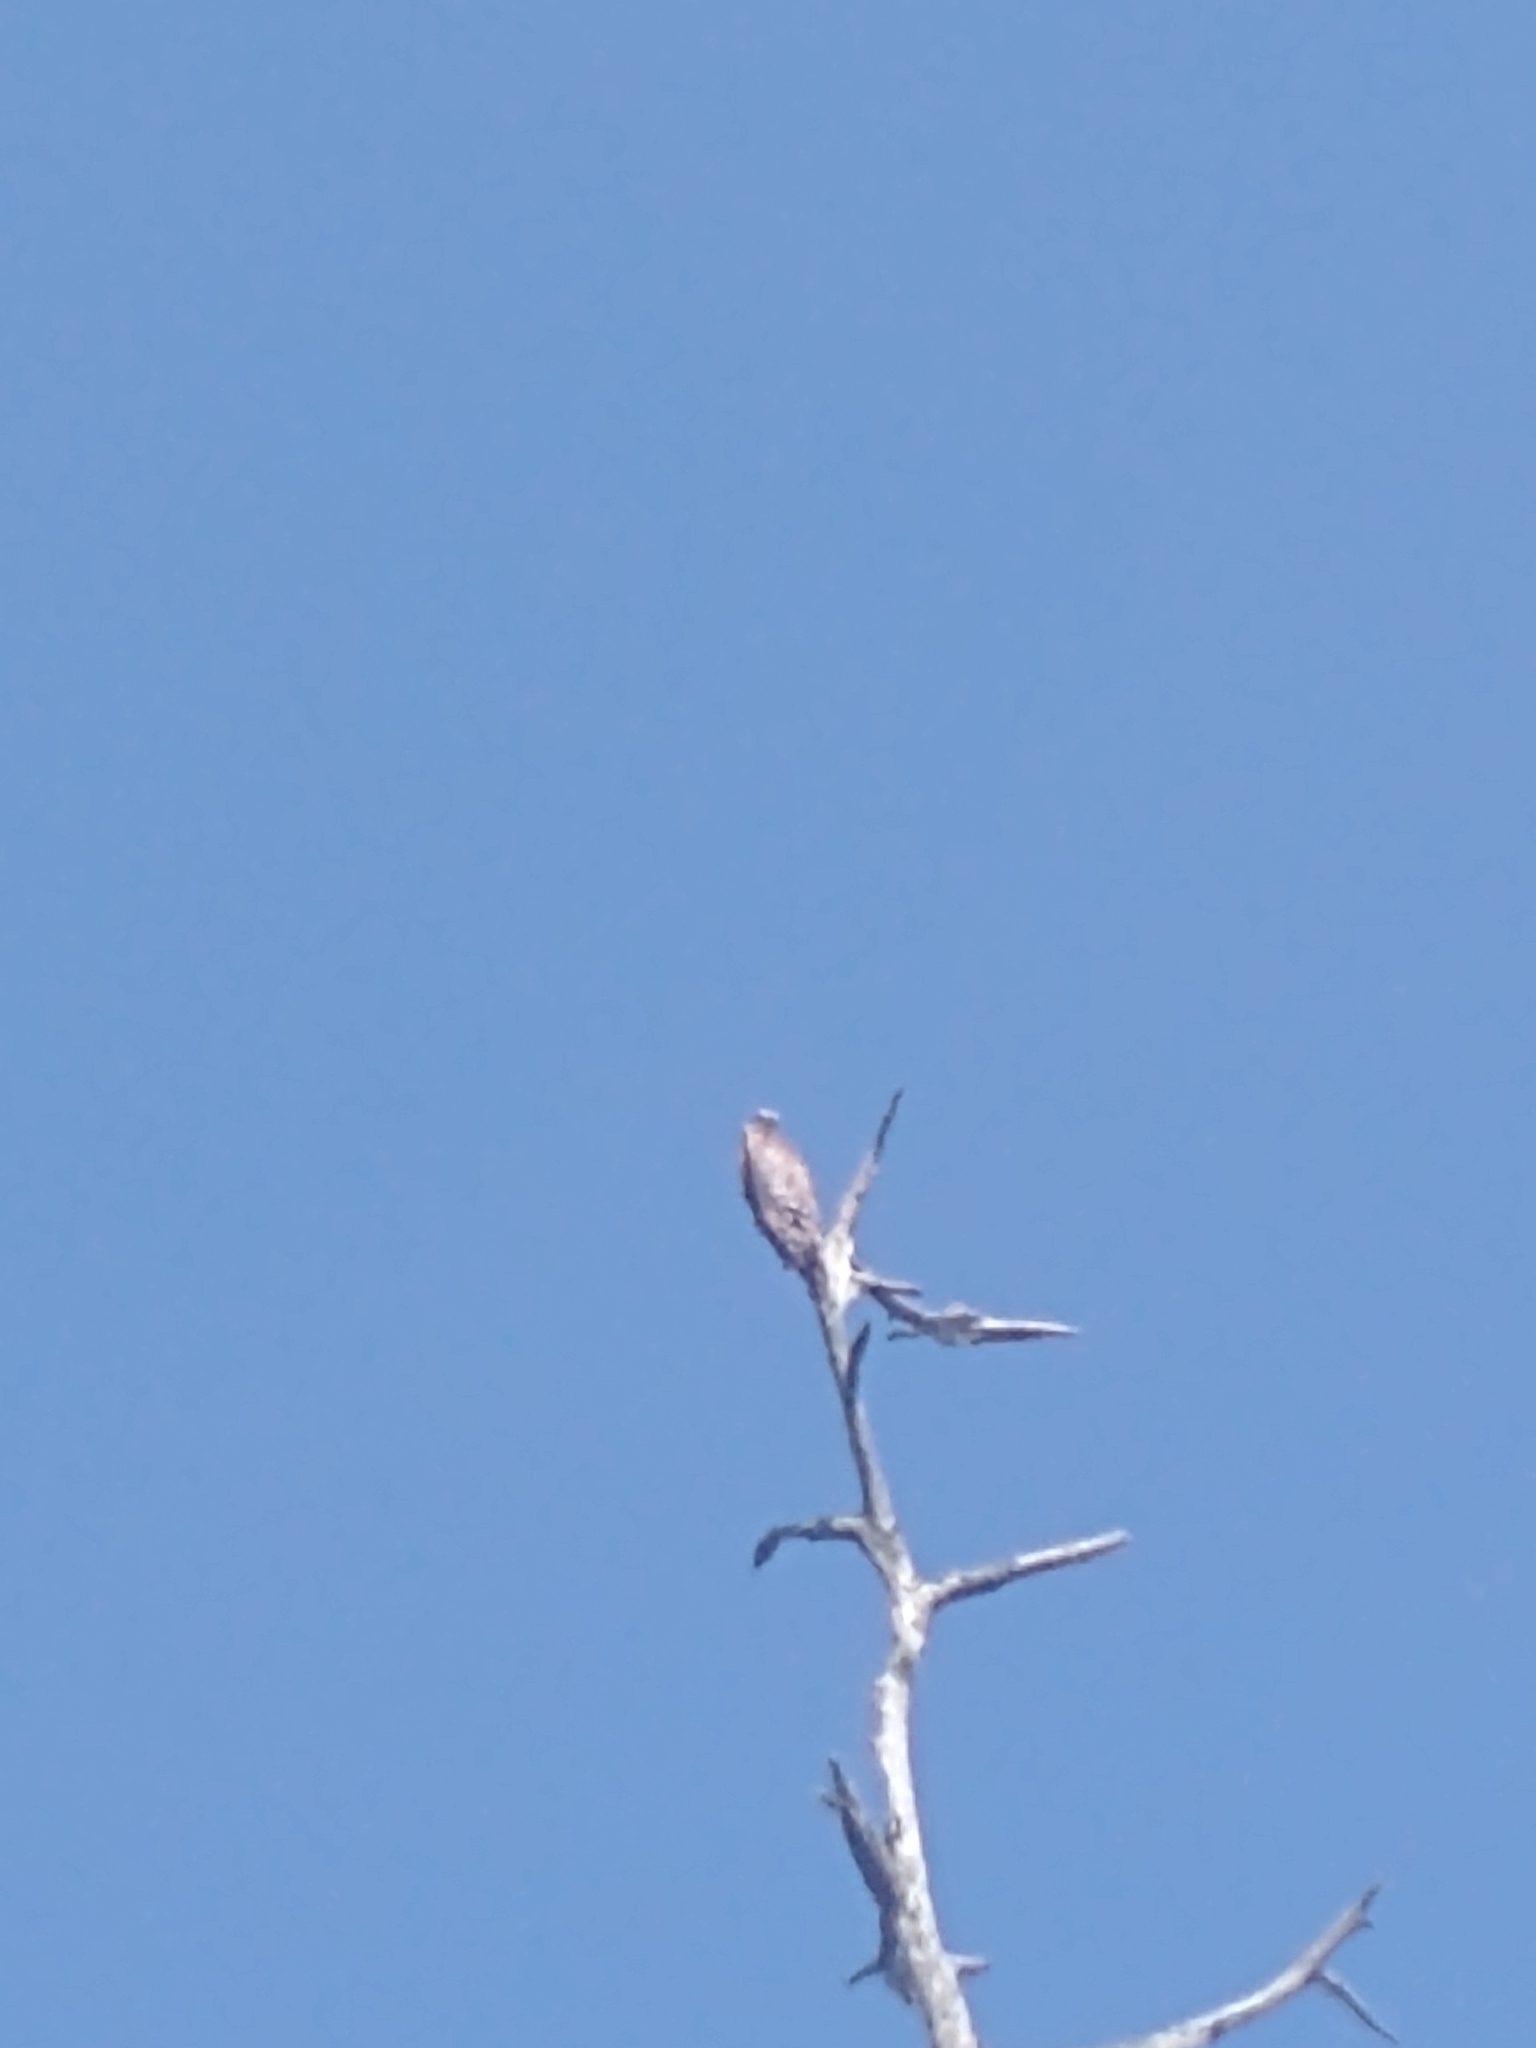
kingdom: Animalia
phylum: Chordata
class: Aves
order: Accipitriformes
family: Accipitridae
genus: Buteo
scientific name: Buteo lineatus
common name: Red-shouldered hawk
